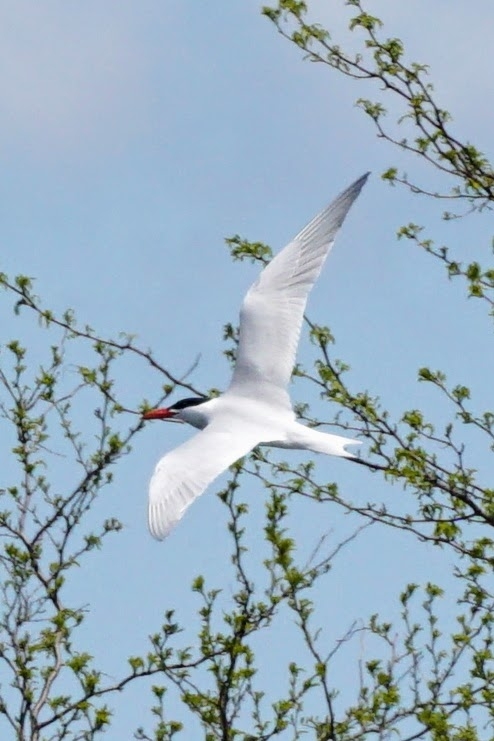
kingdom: Animalia
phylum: Chordata
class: Aves
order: Charadriiformes
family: Laridae
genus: Hydroprogne
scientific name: Hydroprogne caspia
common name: Caspian tern
